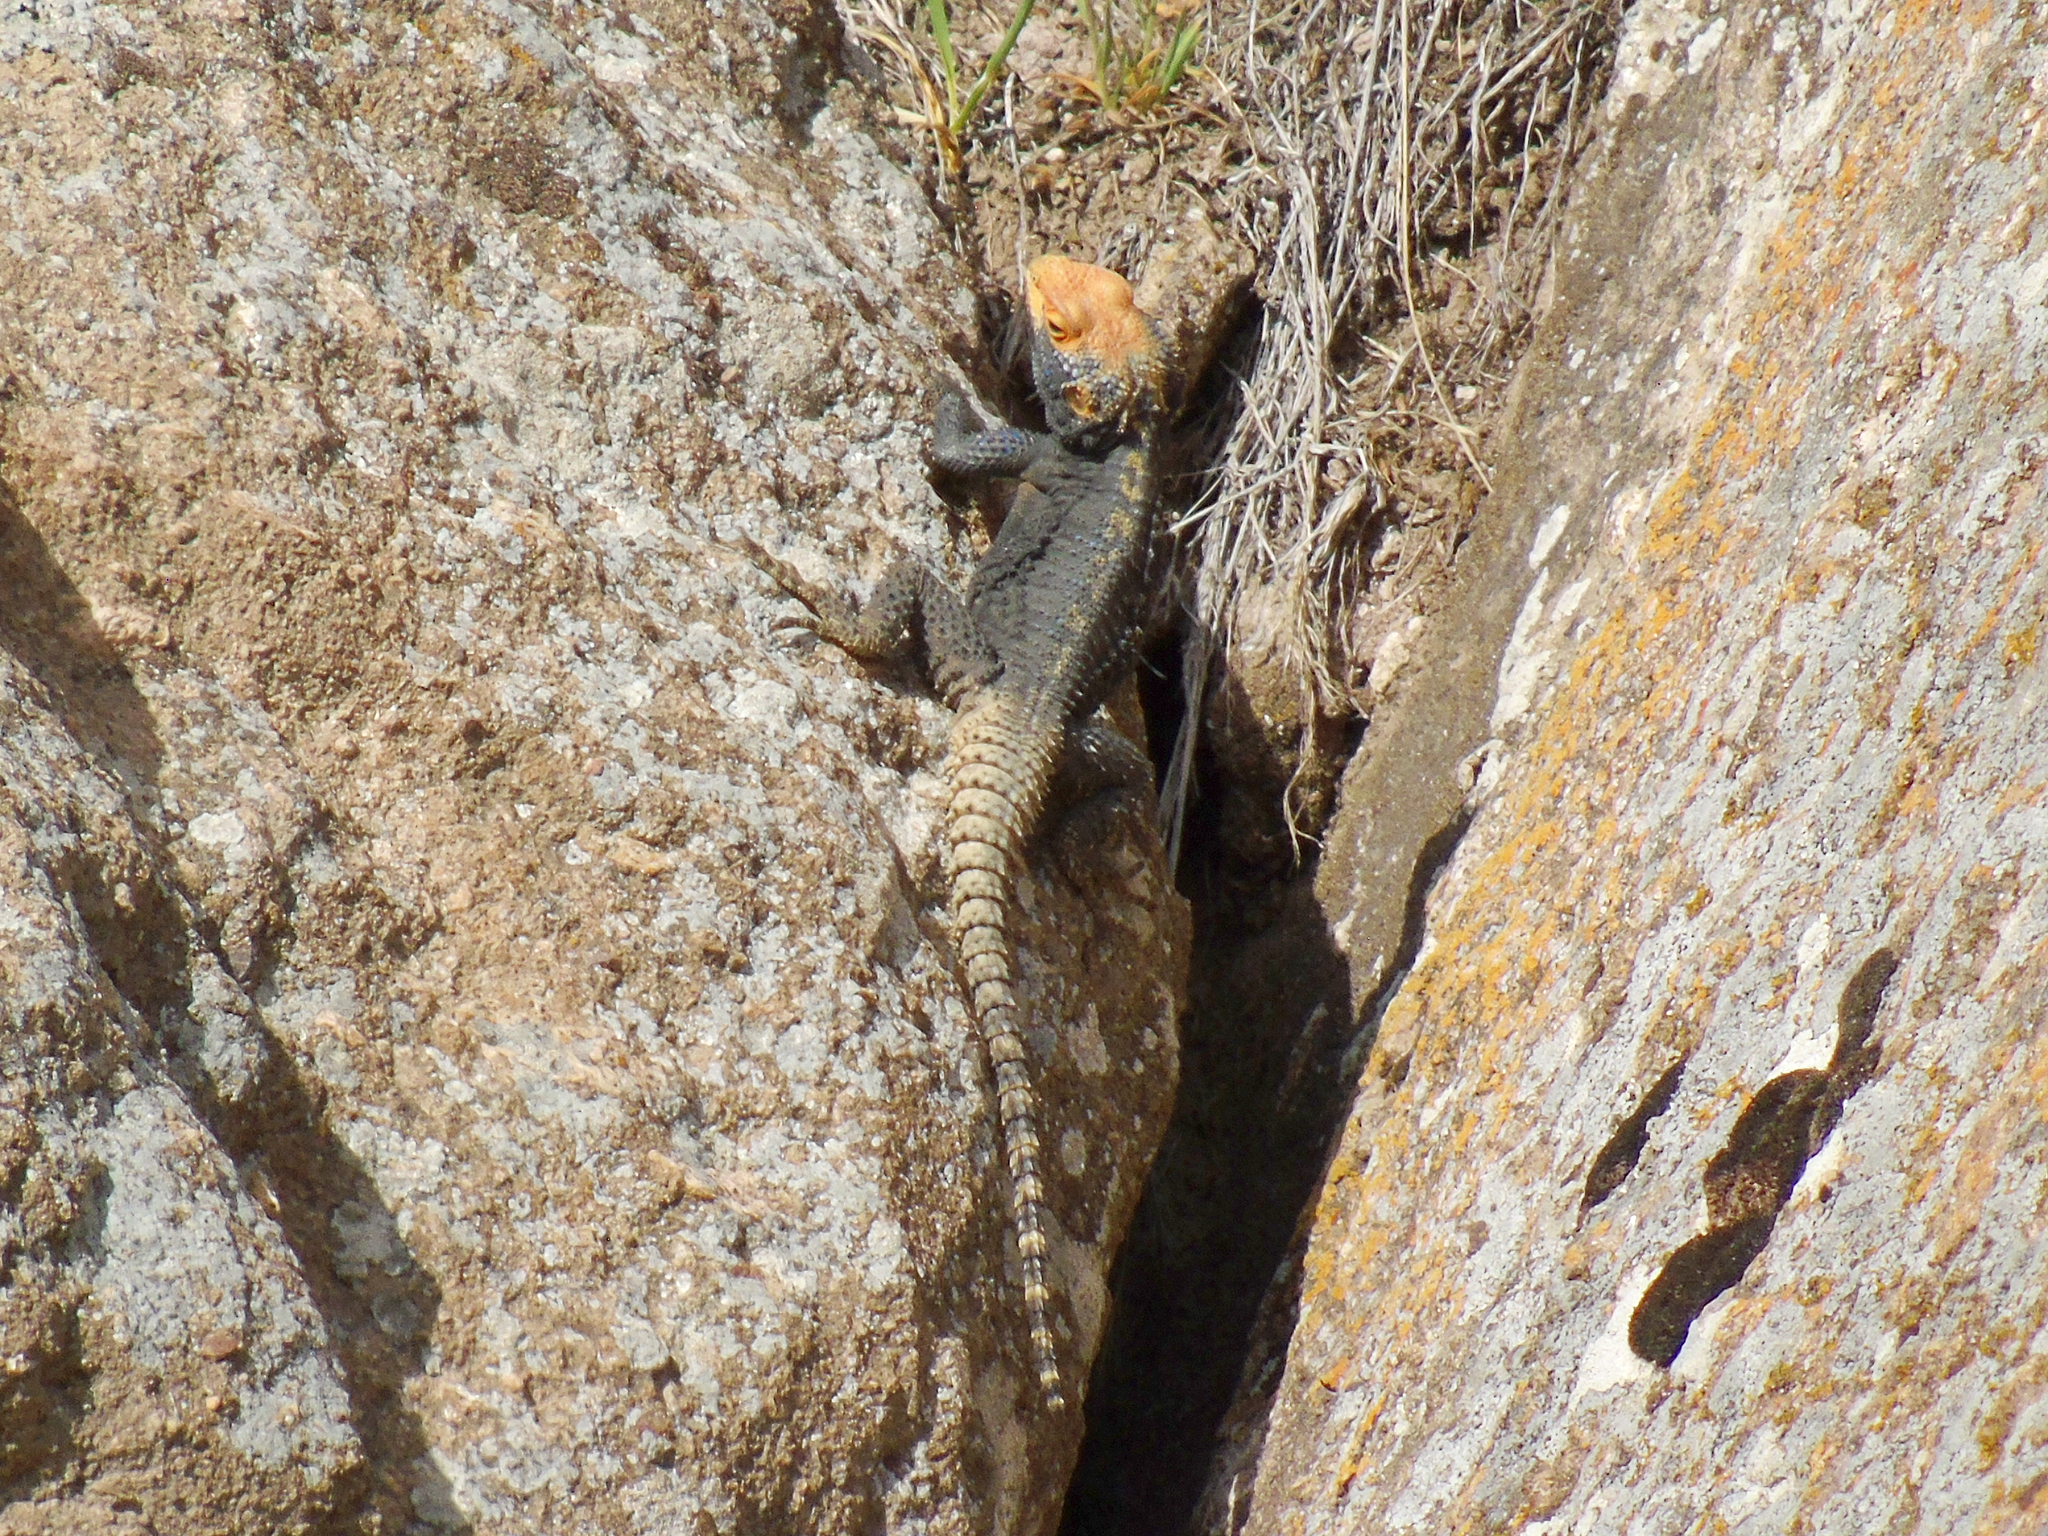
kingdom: Animalia
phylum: Chordata
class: Squamata
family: Agamidae
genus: Stellagama
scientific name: Stellagama stellio
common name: Starred agama
